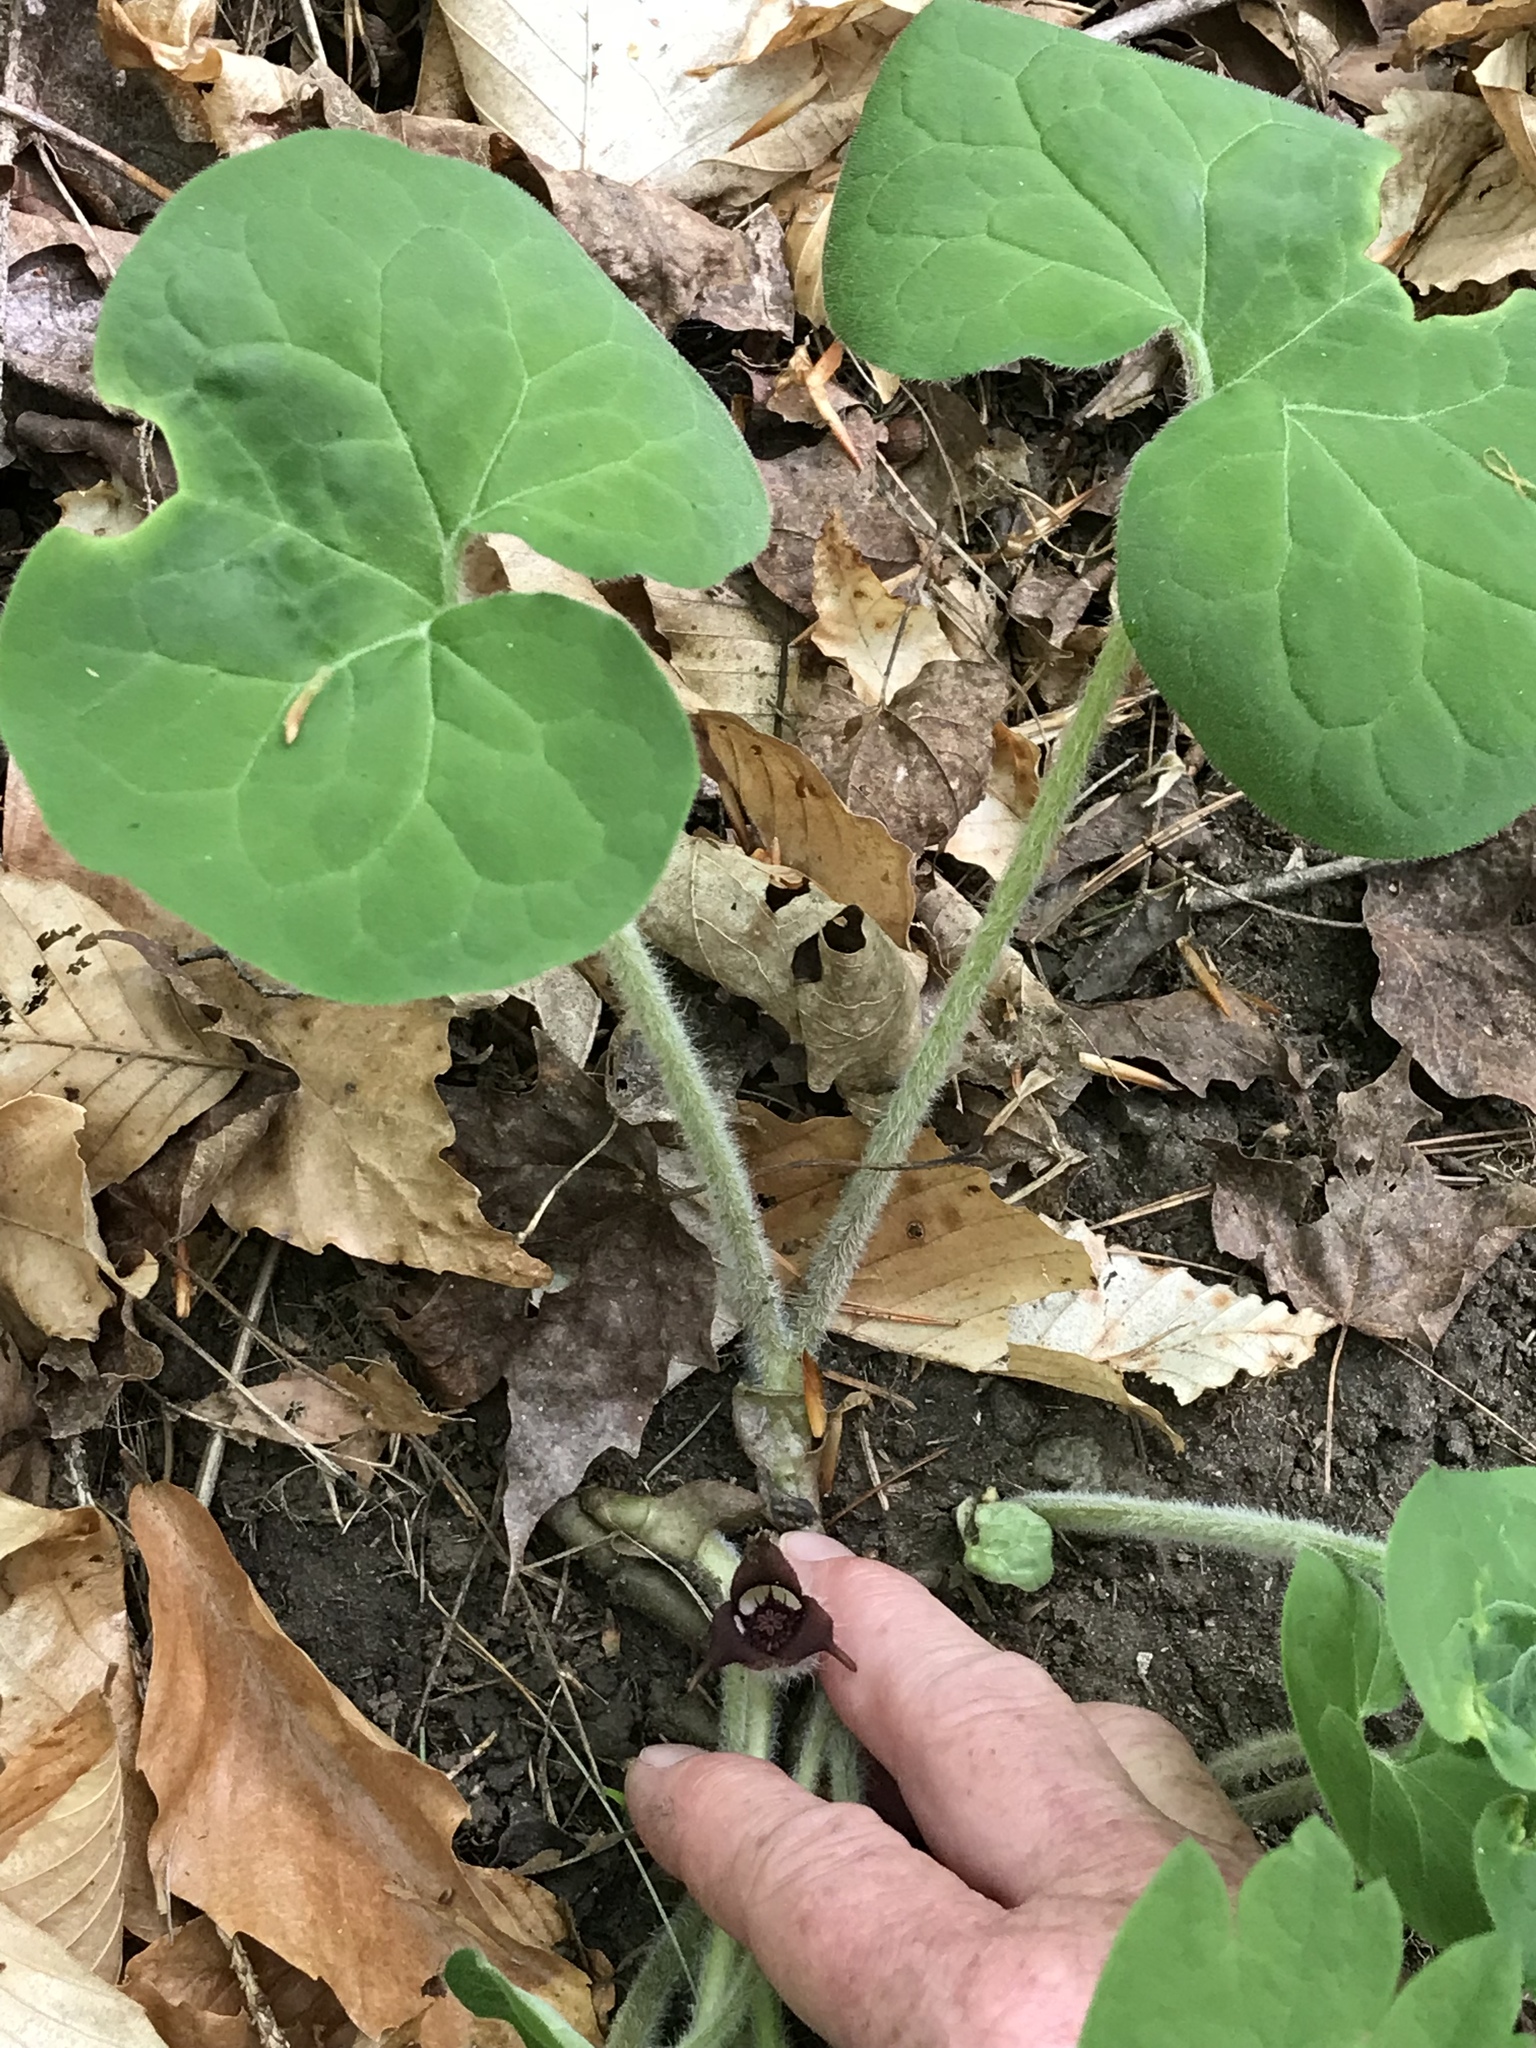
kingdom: Plantae
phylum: Tracheophyta
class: Magnoliopsida
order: Piperales
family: Aristolochiaceae
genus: Asarum
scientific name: Asarum canadense
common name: Wild ginger
